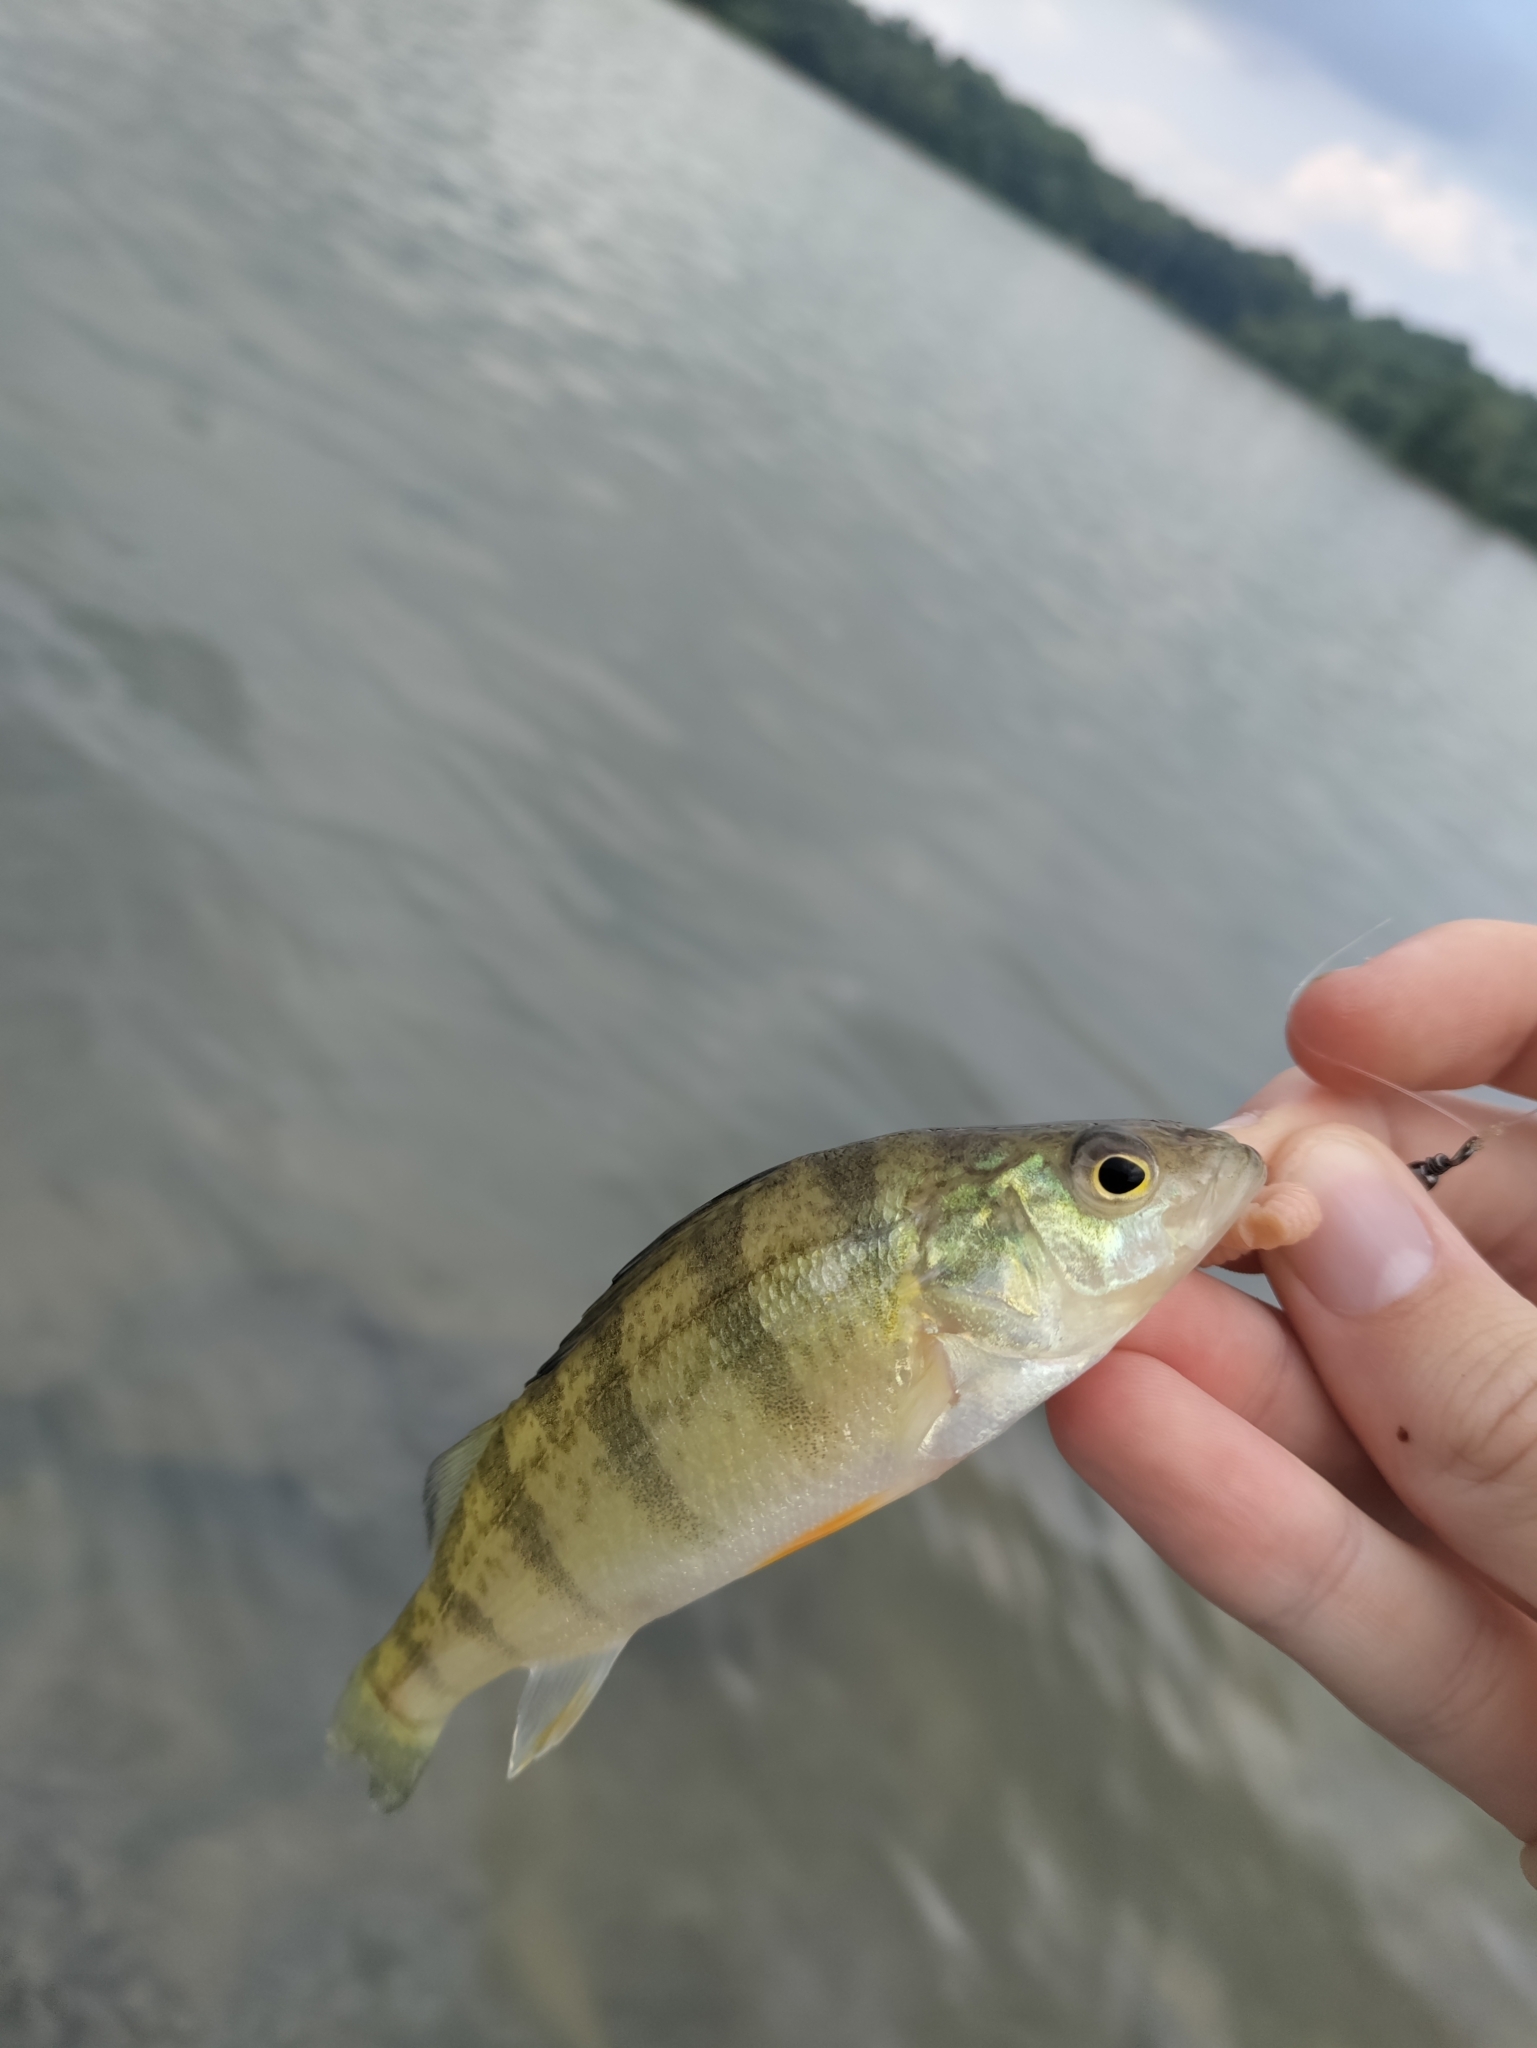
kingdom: Animalia
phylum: Chordata
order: Perciformes
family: Percidae
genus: Perca
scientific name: Perca flavescens
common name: Yellow perch
